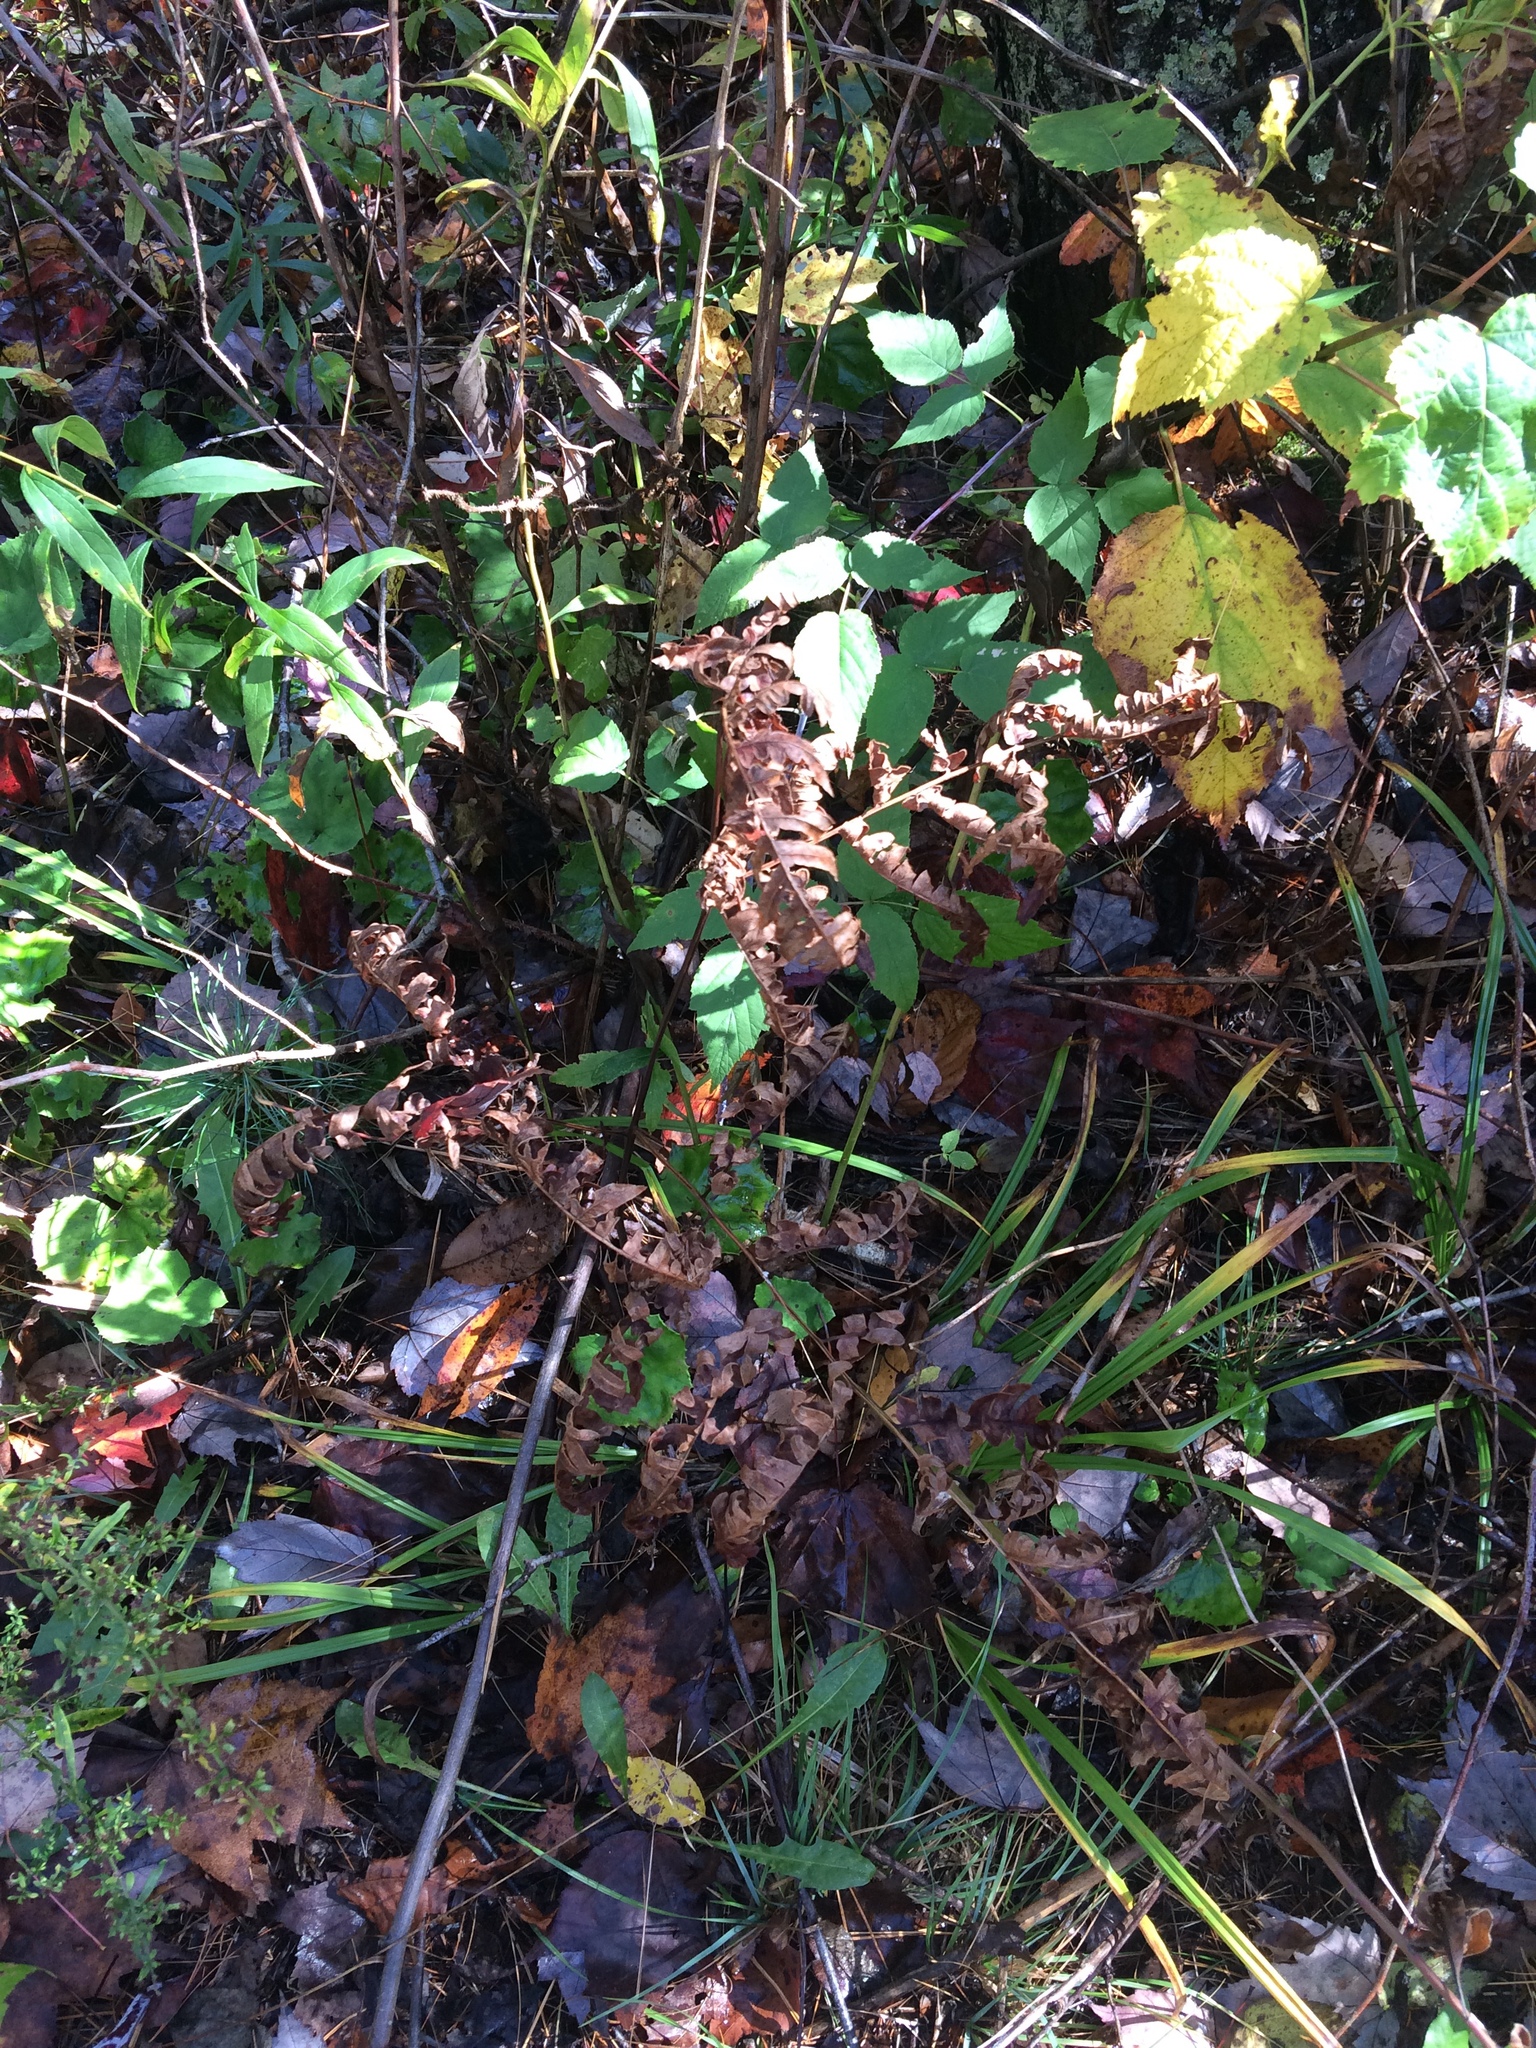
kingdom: Plantae
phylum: Tracheophyta
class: Polypodiopsida
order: Polypodiales
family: Dennstaedtiaceae
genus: Pteridium
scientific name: Pteridium aquilinum
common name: Bracken
